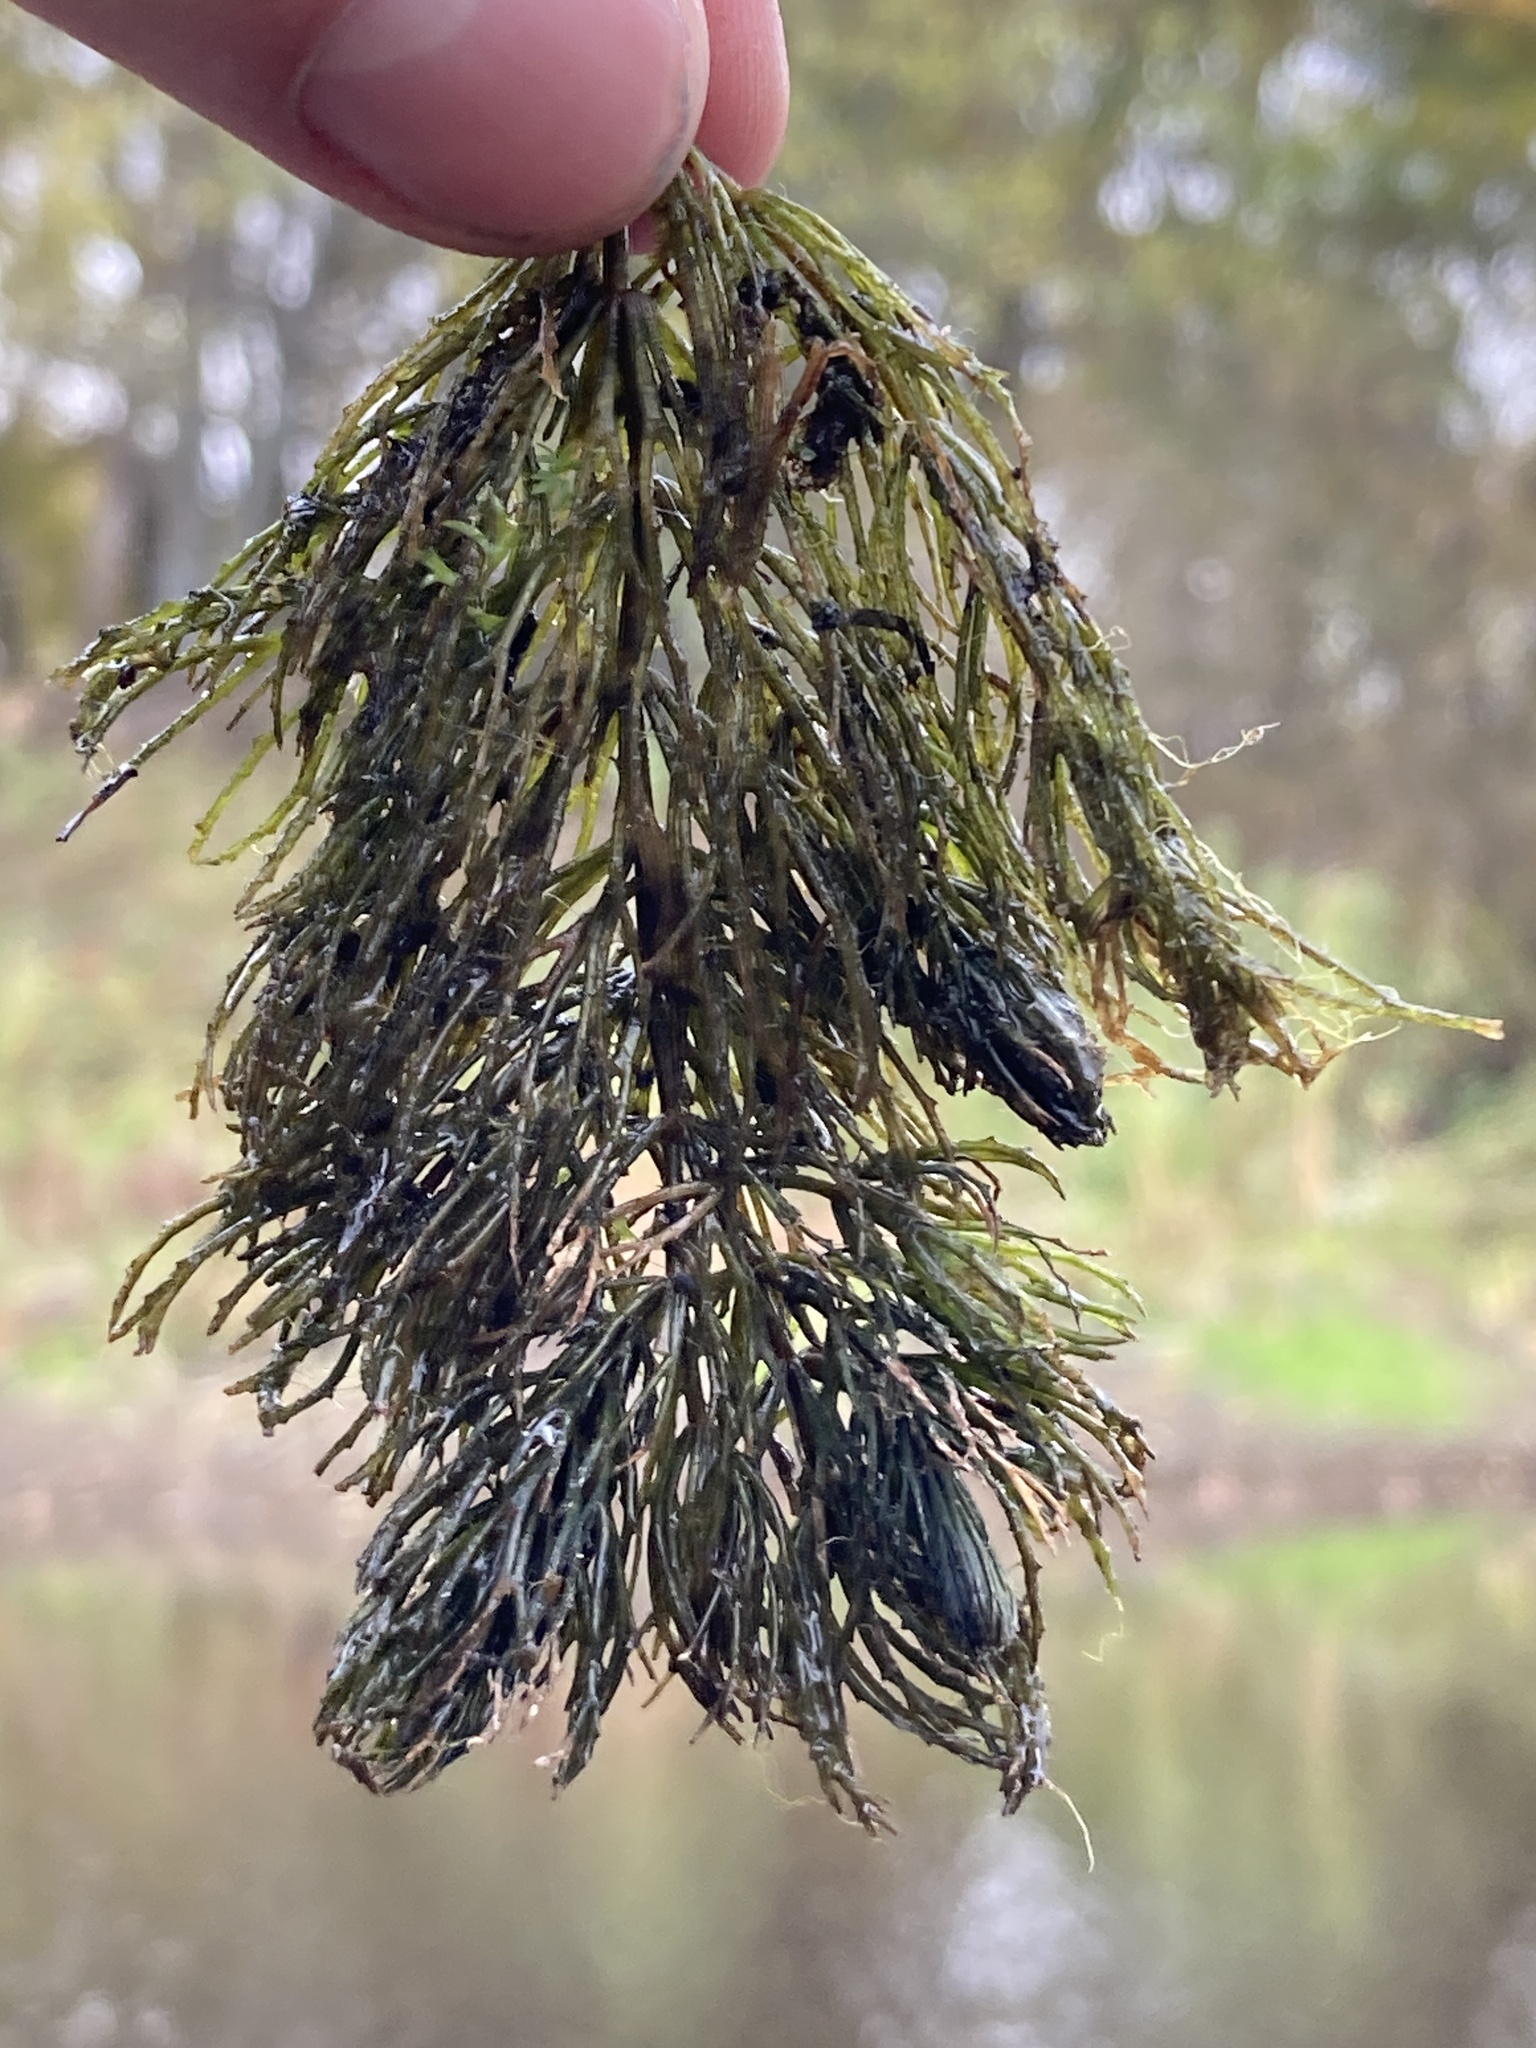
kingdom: Plantae
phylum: Tracheophyta
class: Magnoliopsida
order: Ceratophyllales
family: Ceratophyllaceae
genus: Ceratophyllum
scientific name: Ceratophyllum demersum
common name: Rigid hornwort
